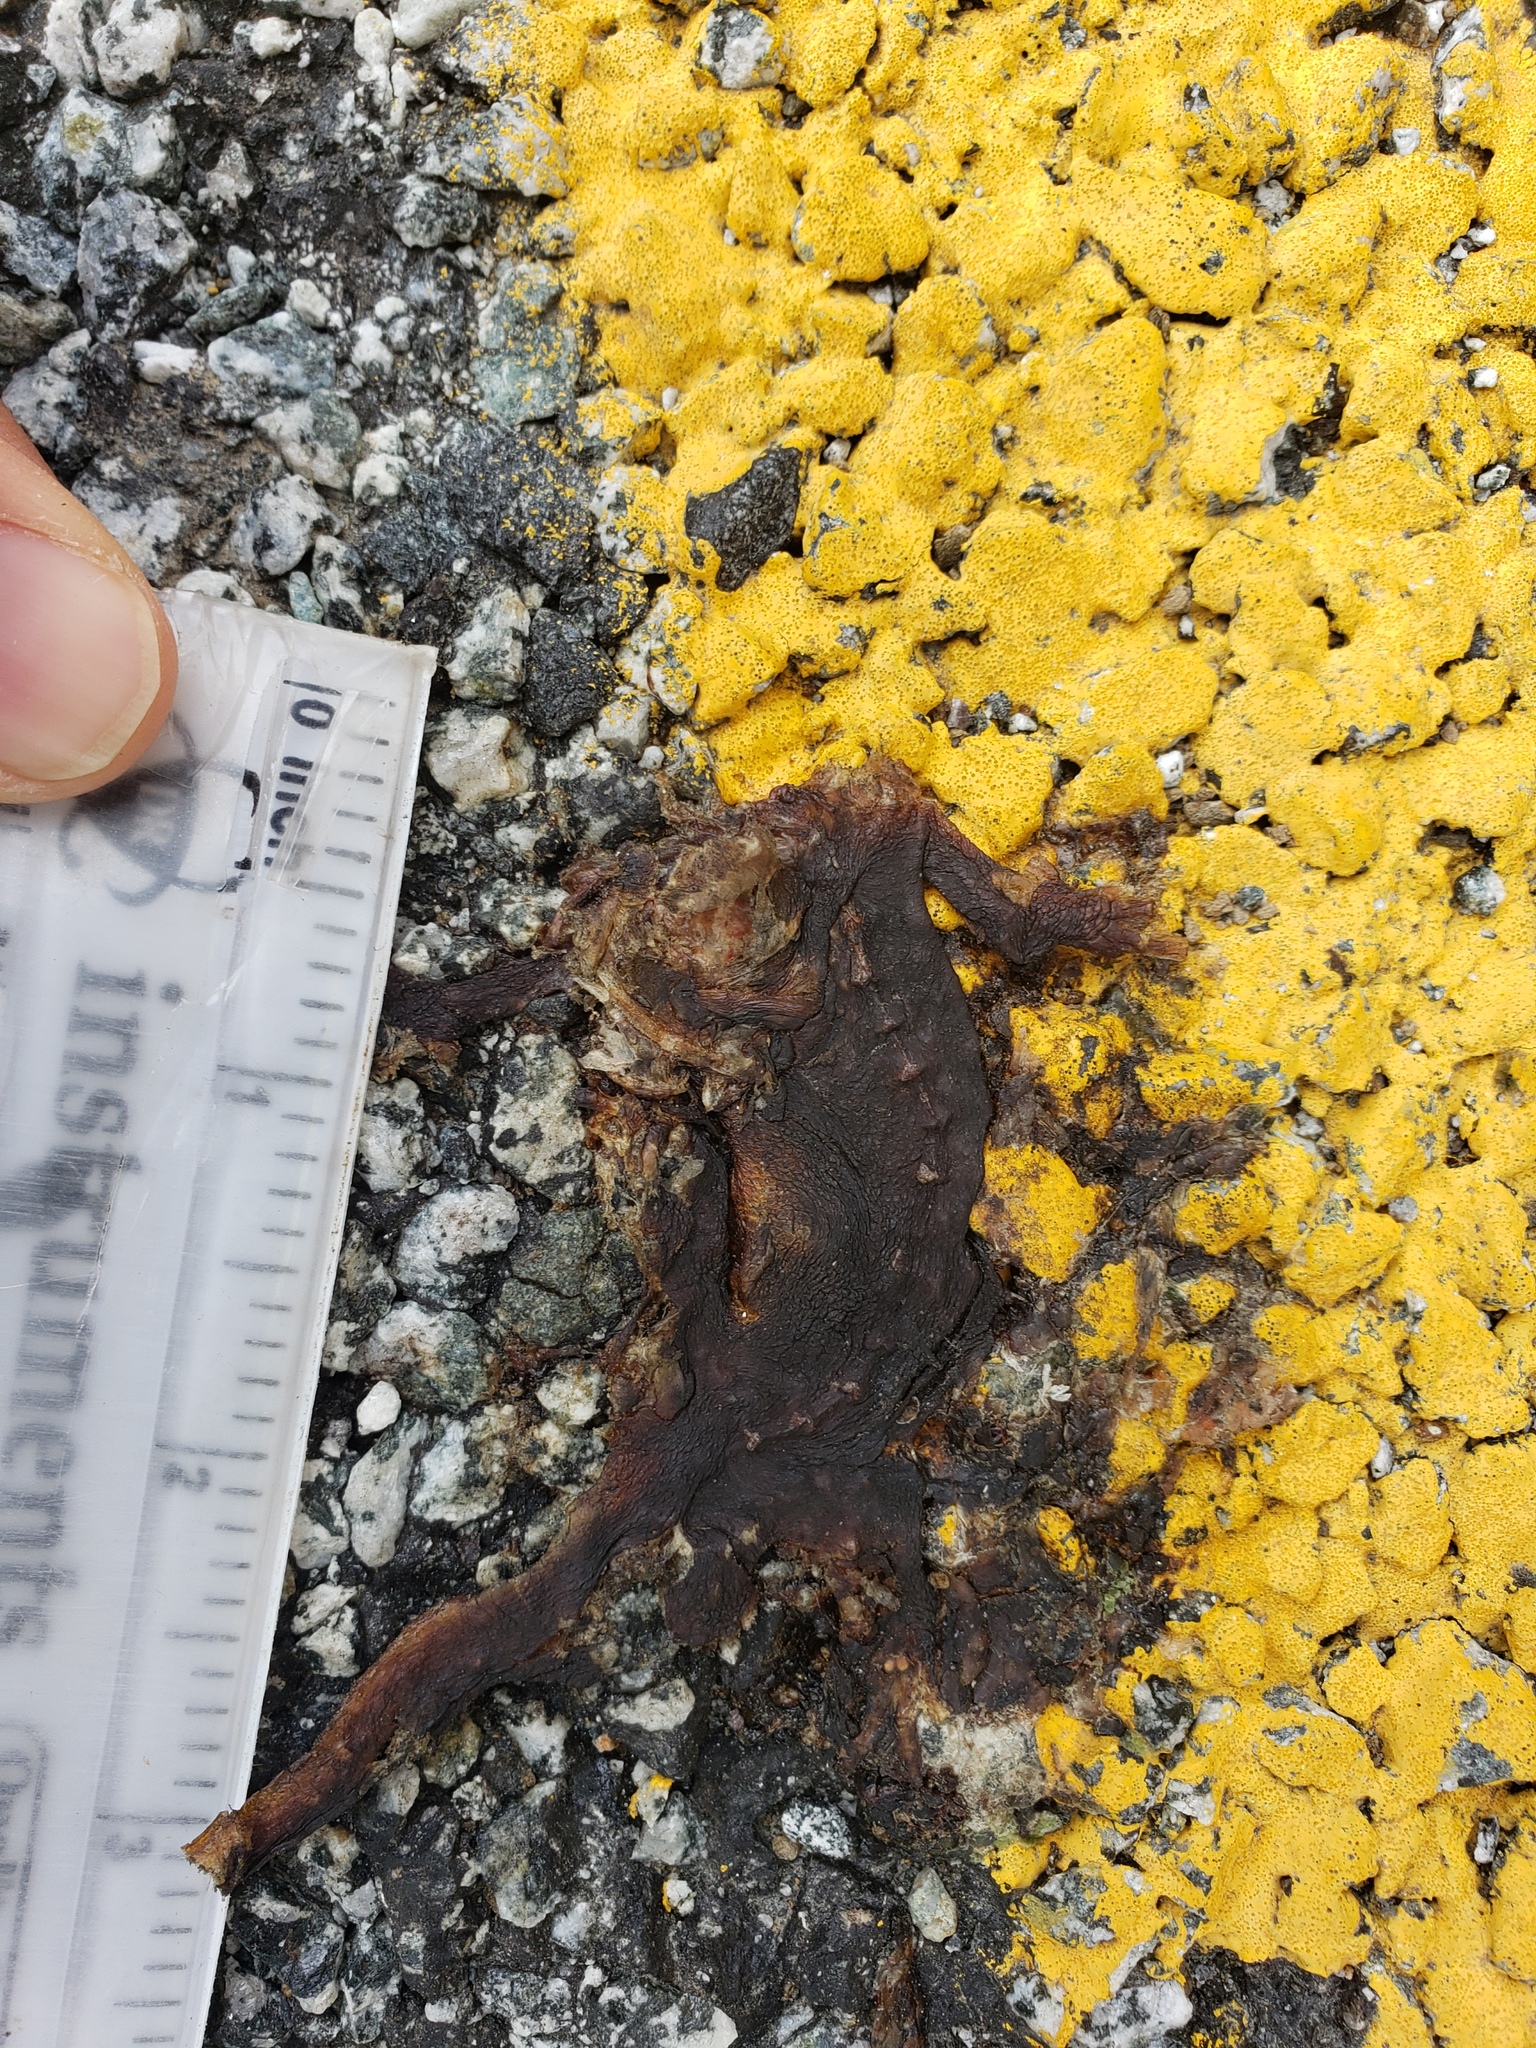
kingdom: Animalia
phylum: Chordata
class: Amphibia
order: Caudata
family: Salamandridae
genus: Taricha
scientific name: Taricha
